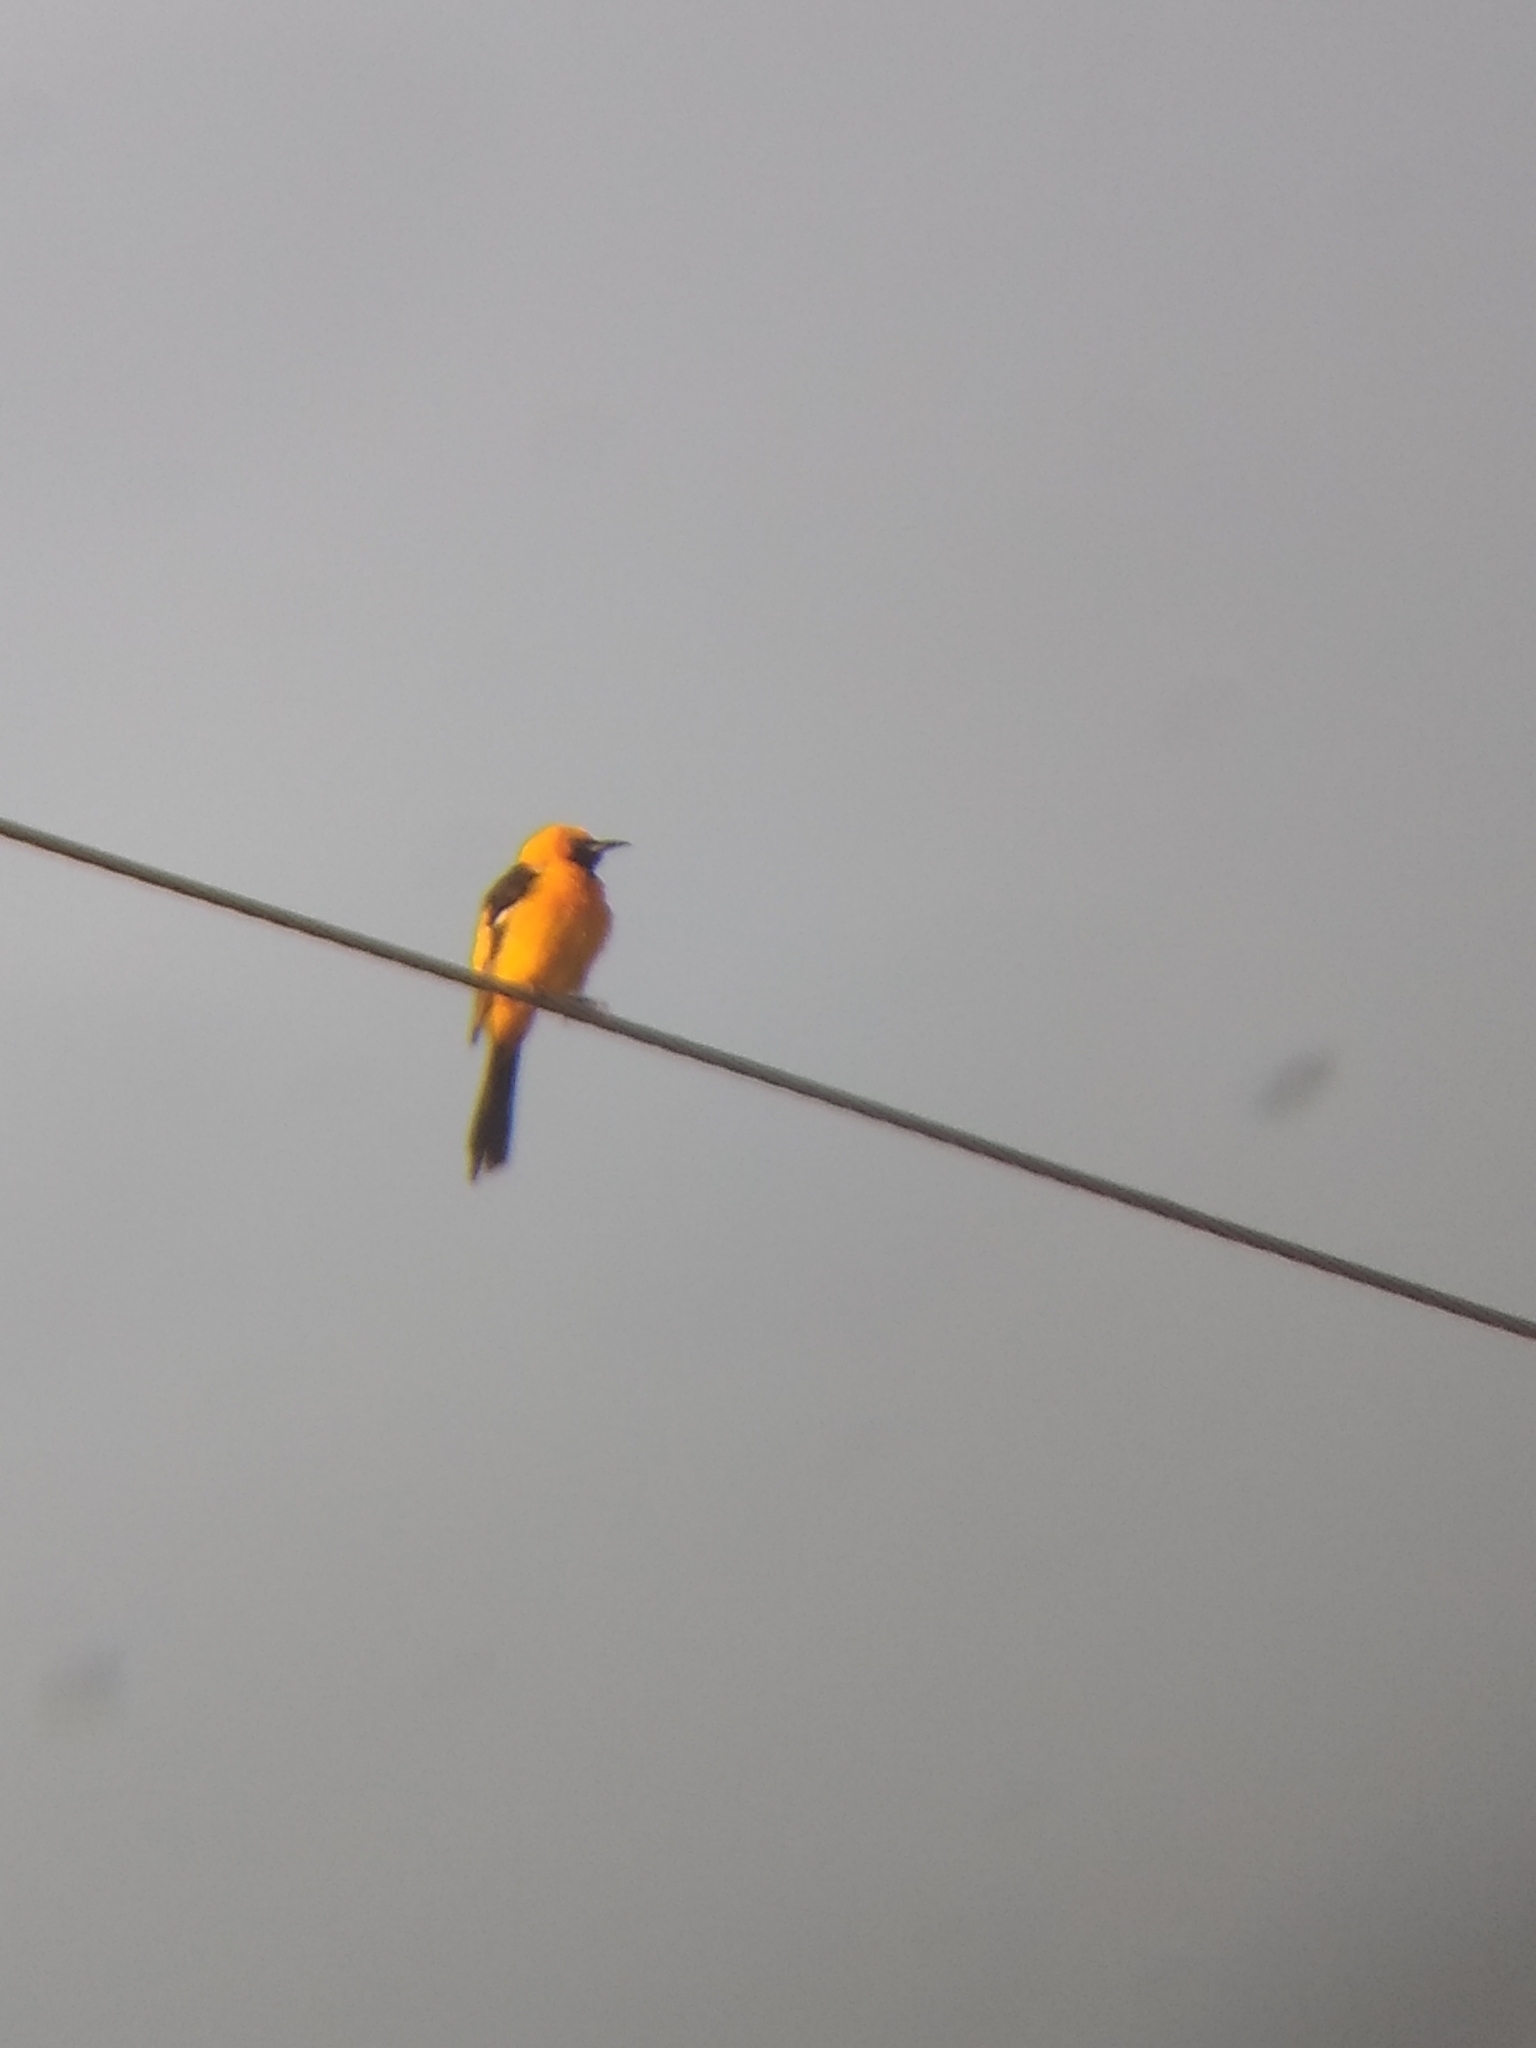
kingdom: Animalia
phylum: Chordata
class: Aves
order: Passeriformes
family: Icteridae
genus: Icterus
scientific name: Icterus cucullatus
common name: Hooded oriole
